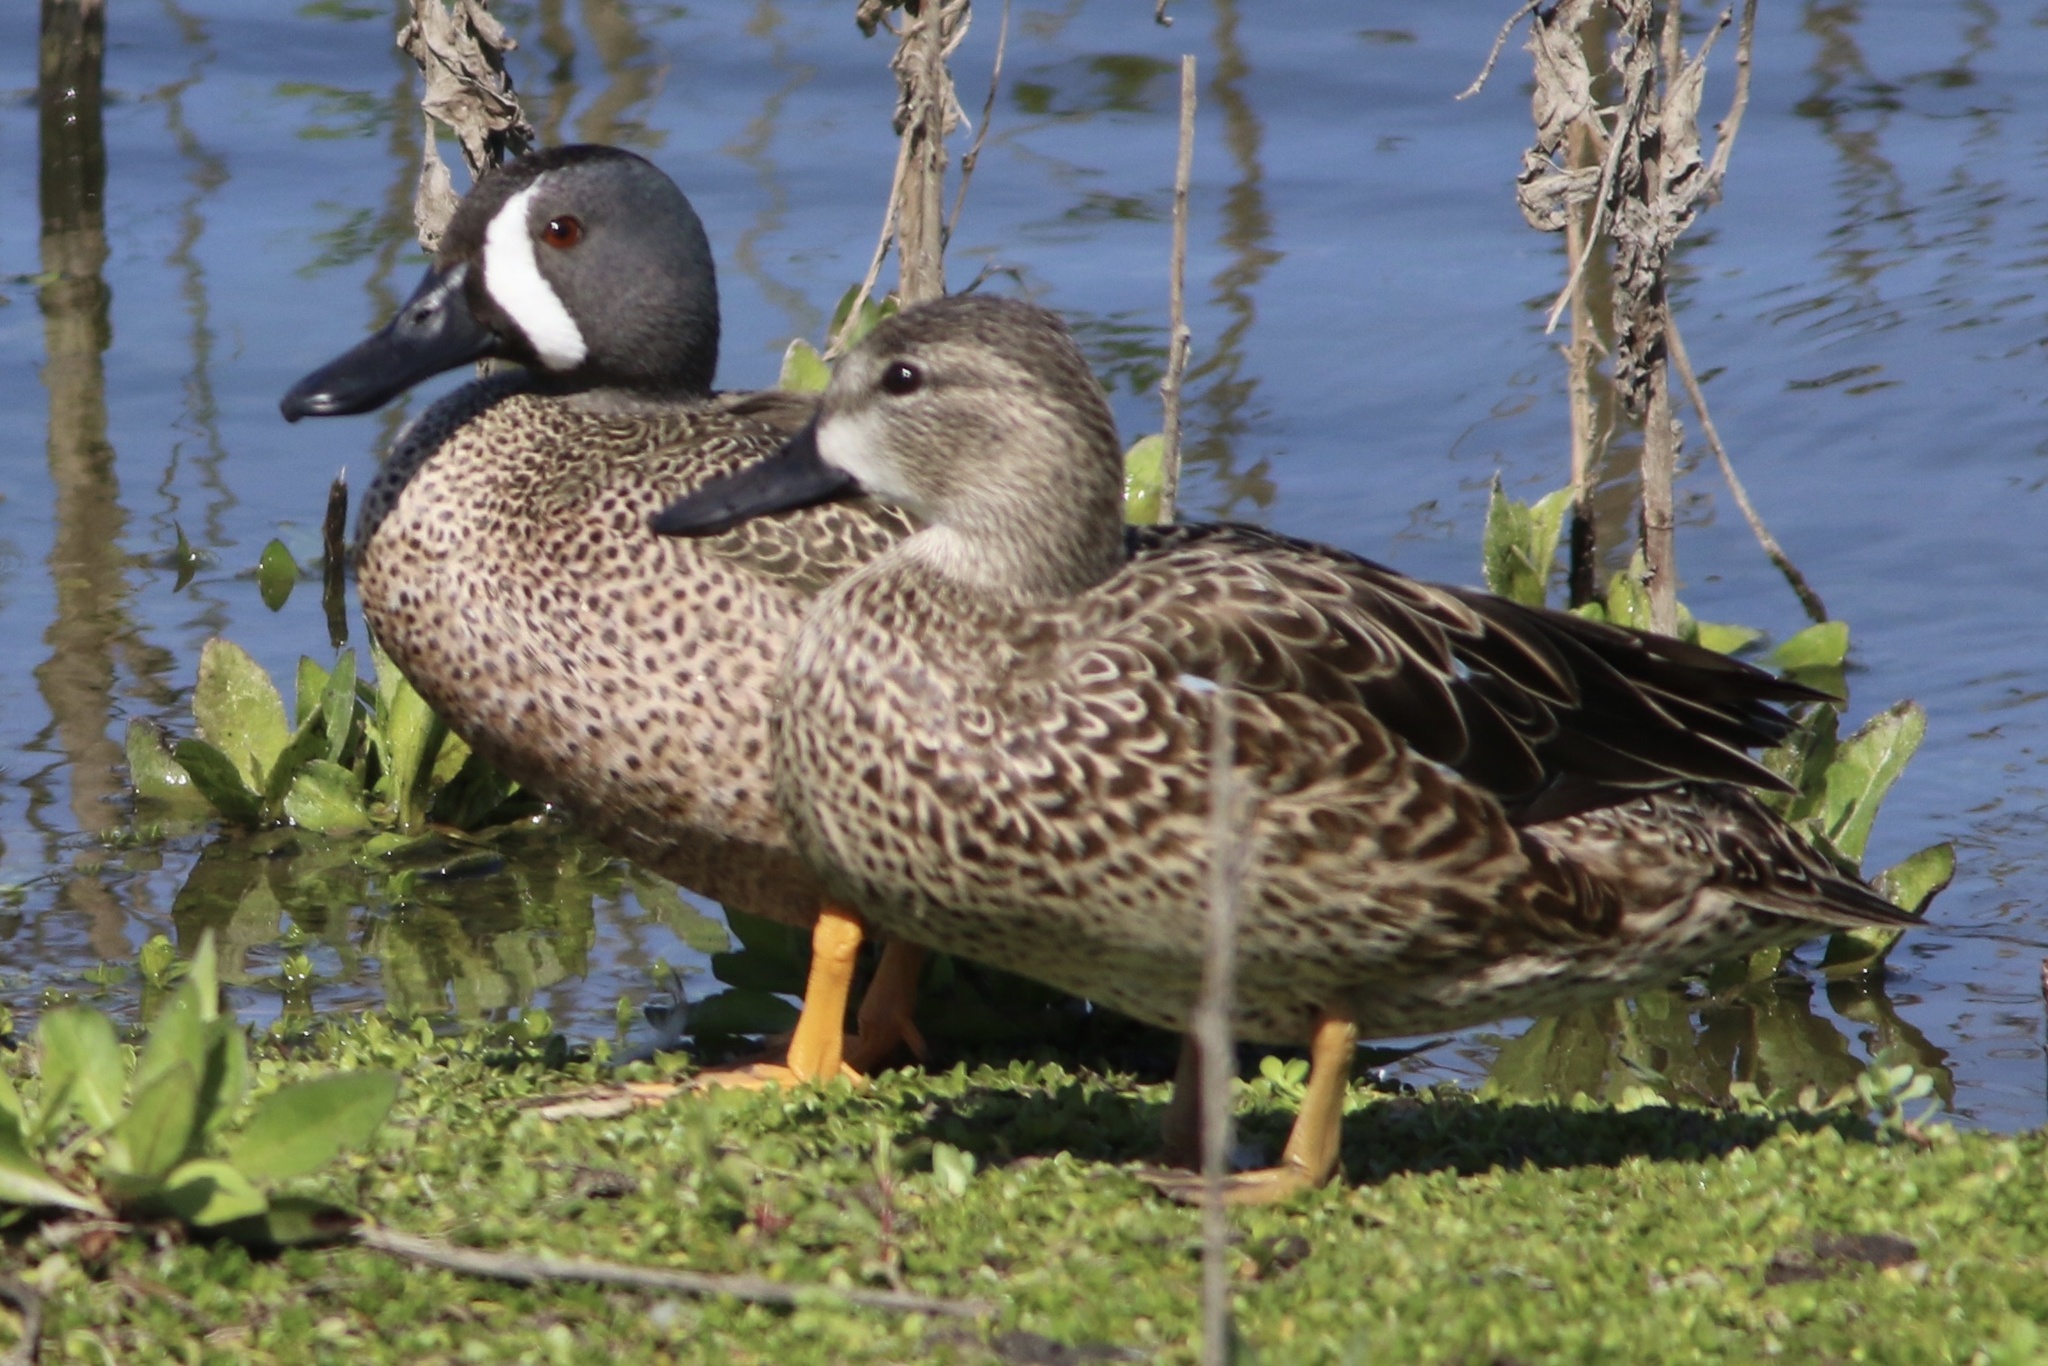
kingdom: Animalia
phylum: Chordata
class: Aves
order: Anseriformes
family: Anatidae
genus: Spatula
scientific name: Spatula discors
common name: Blue-winged teal
